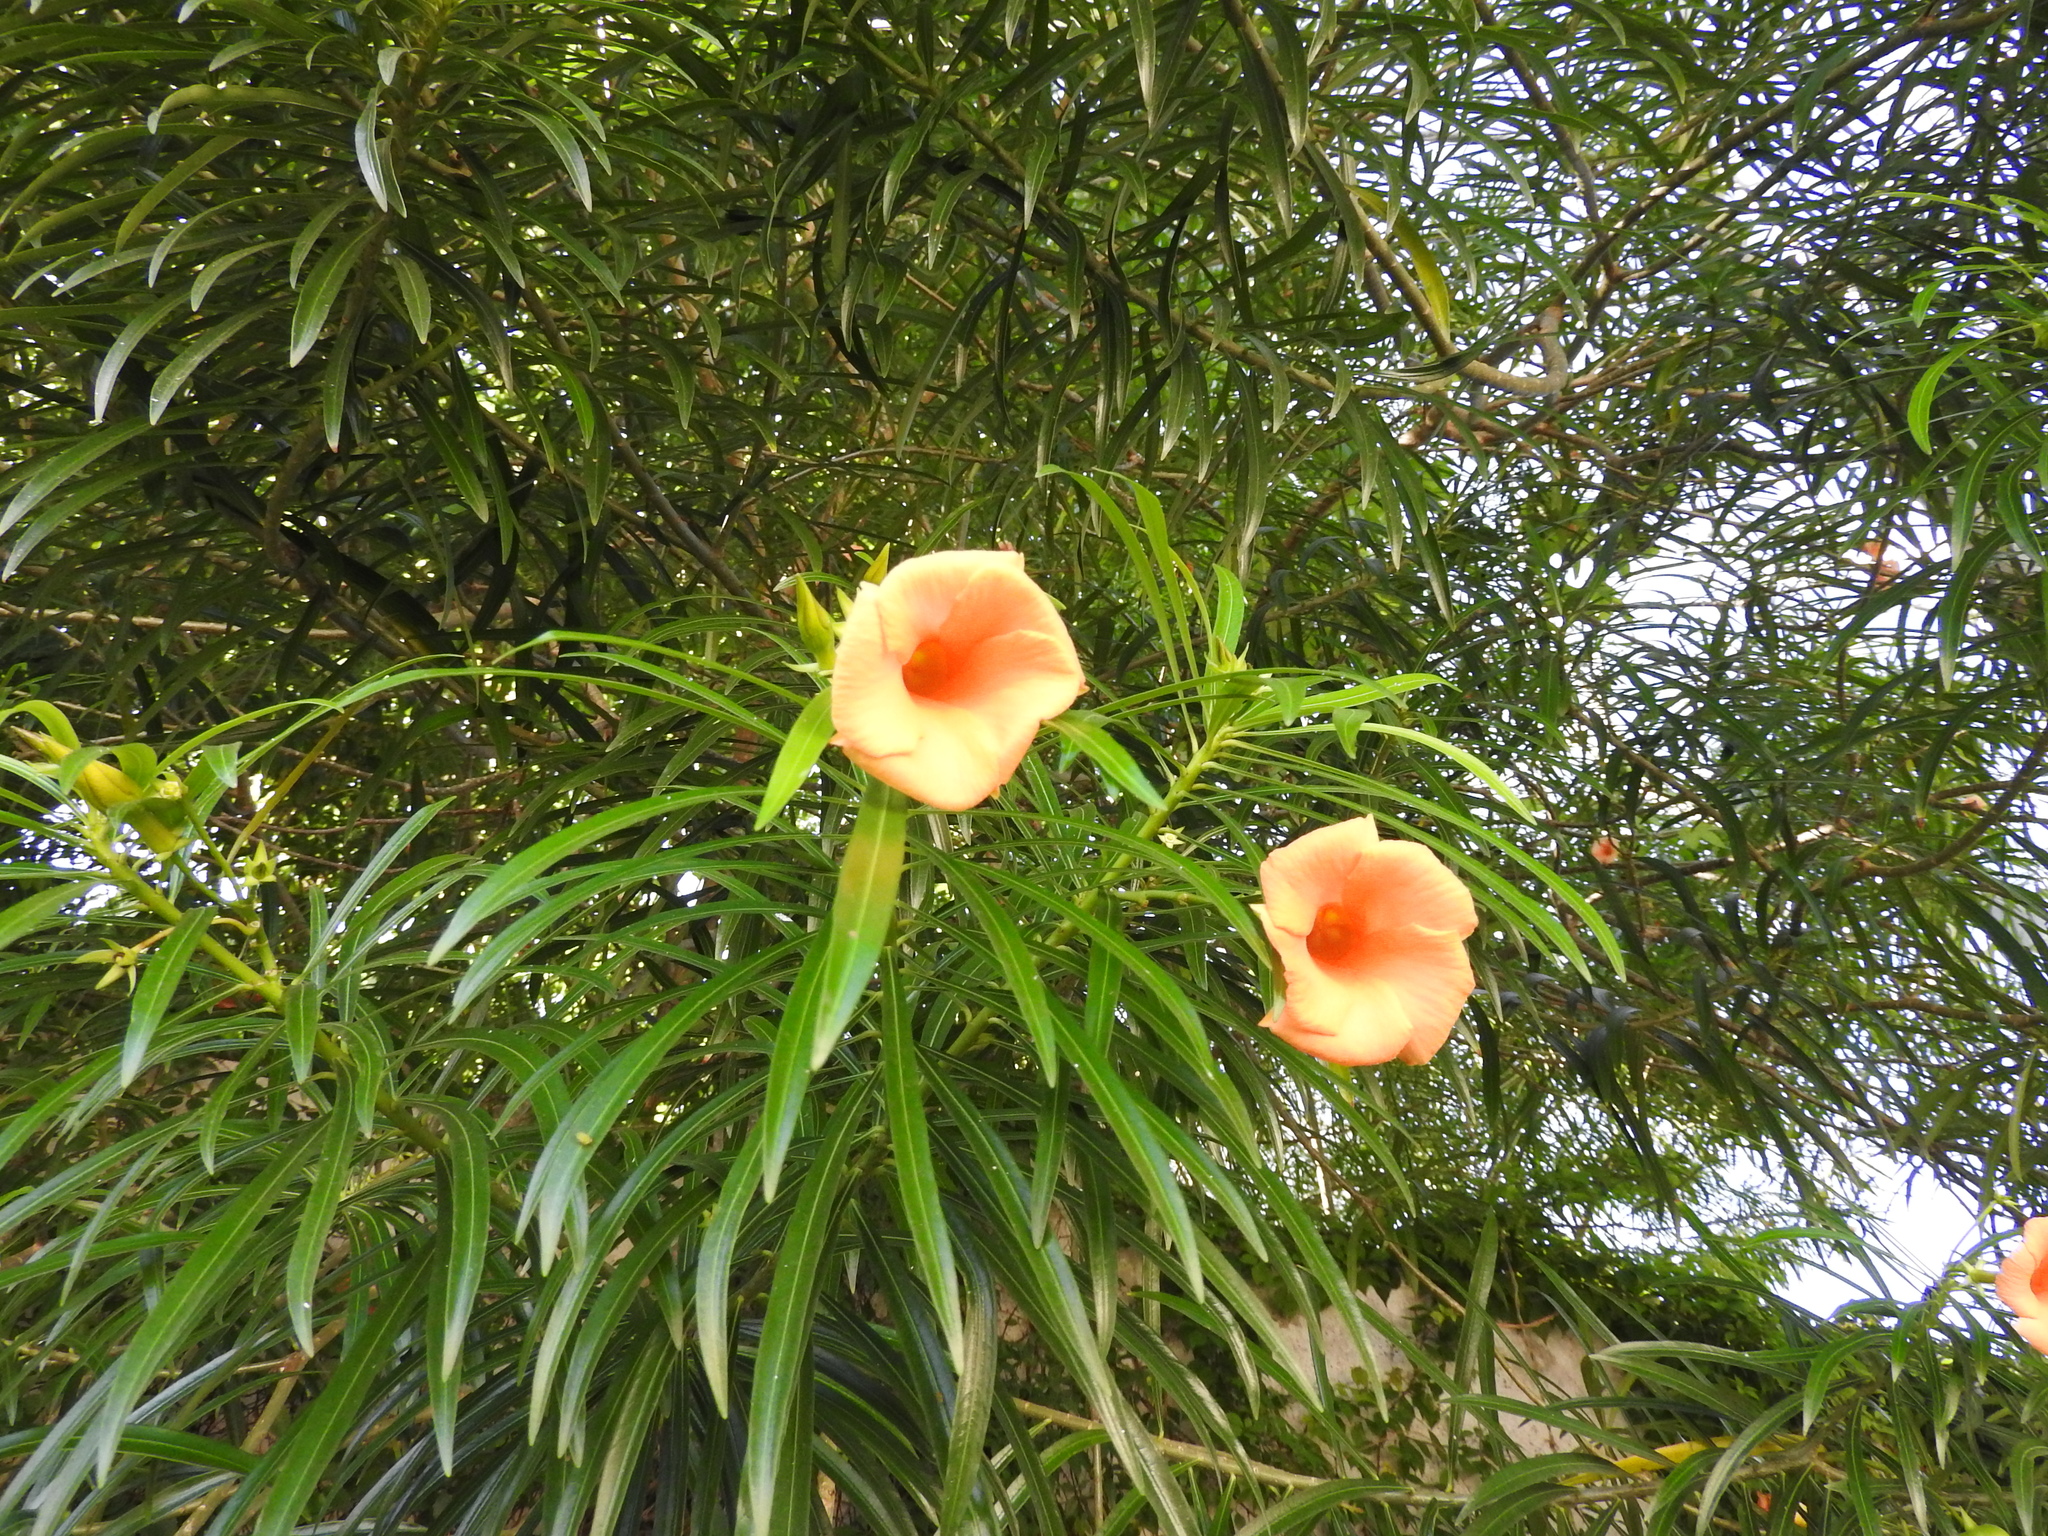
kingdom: Plantae
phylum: Tracheophyta
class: Magnoliopsida
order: Gentianales
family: Apocynaceae
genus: Cascabela
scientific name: Cascabela thevetia
